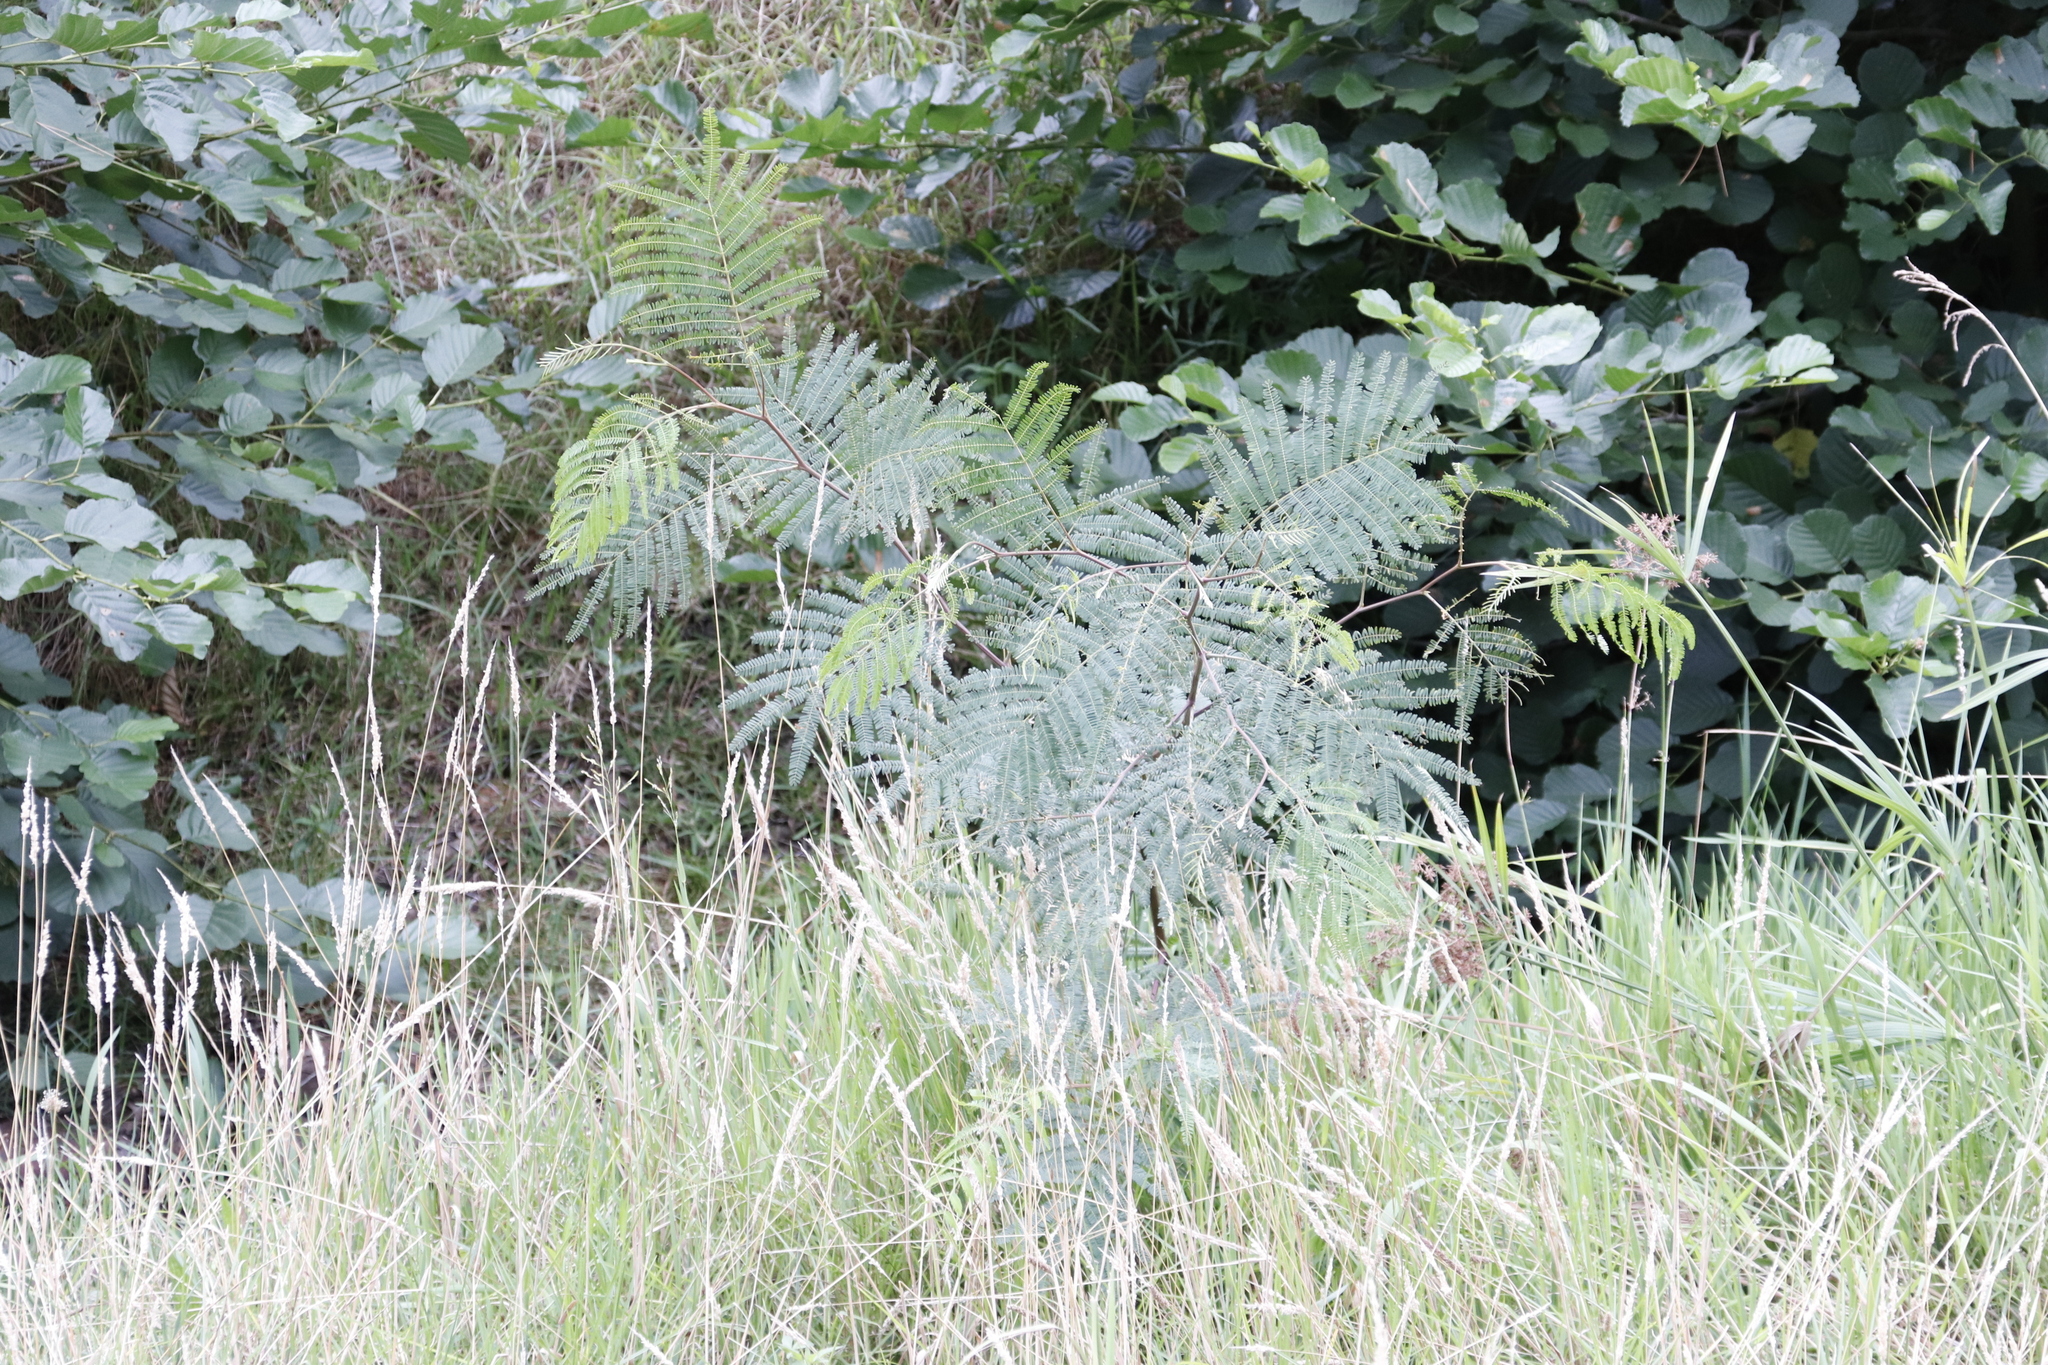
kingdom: Plantae
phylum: Tracheophyta
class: Magnoliopsida
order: Fabales
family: Fabaceae
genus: Paraserianthes
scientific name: Paraserianthes lophantha
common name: Plume albizia
